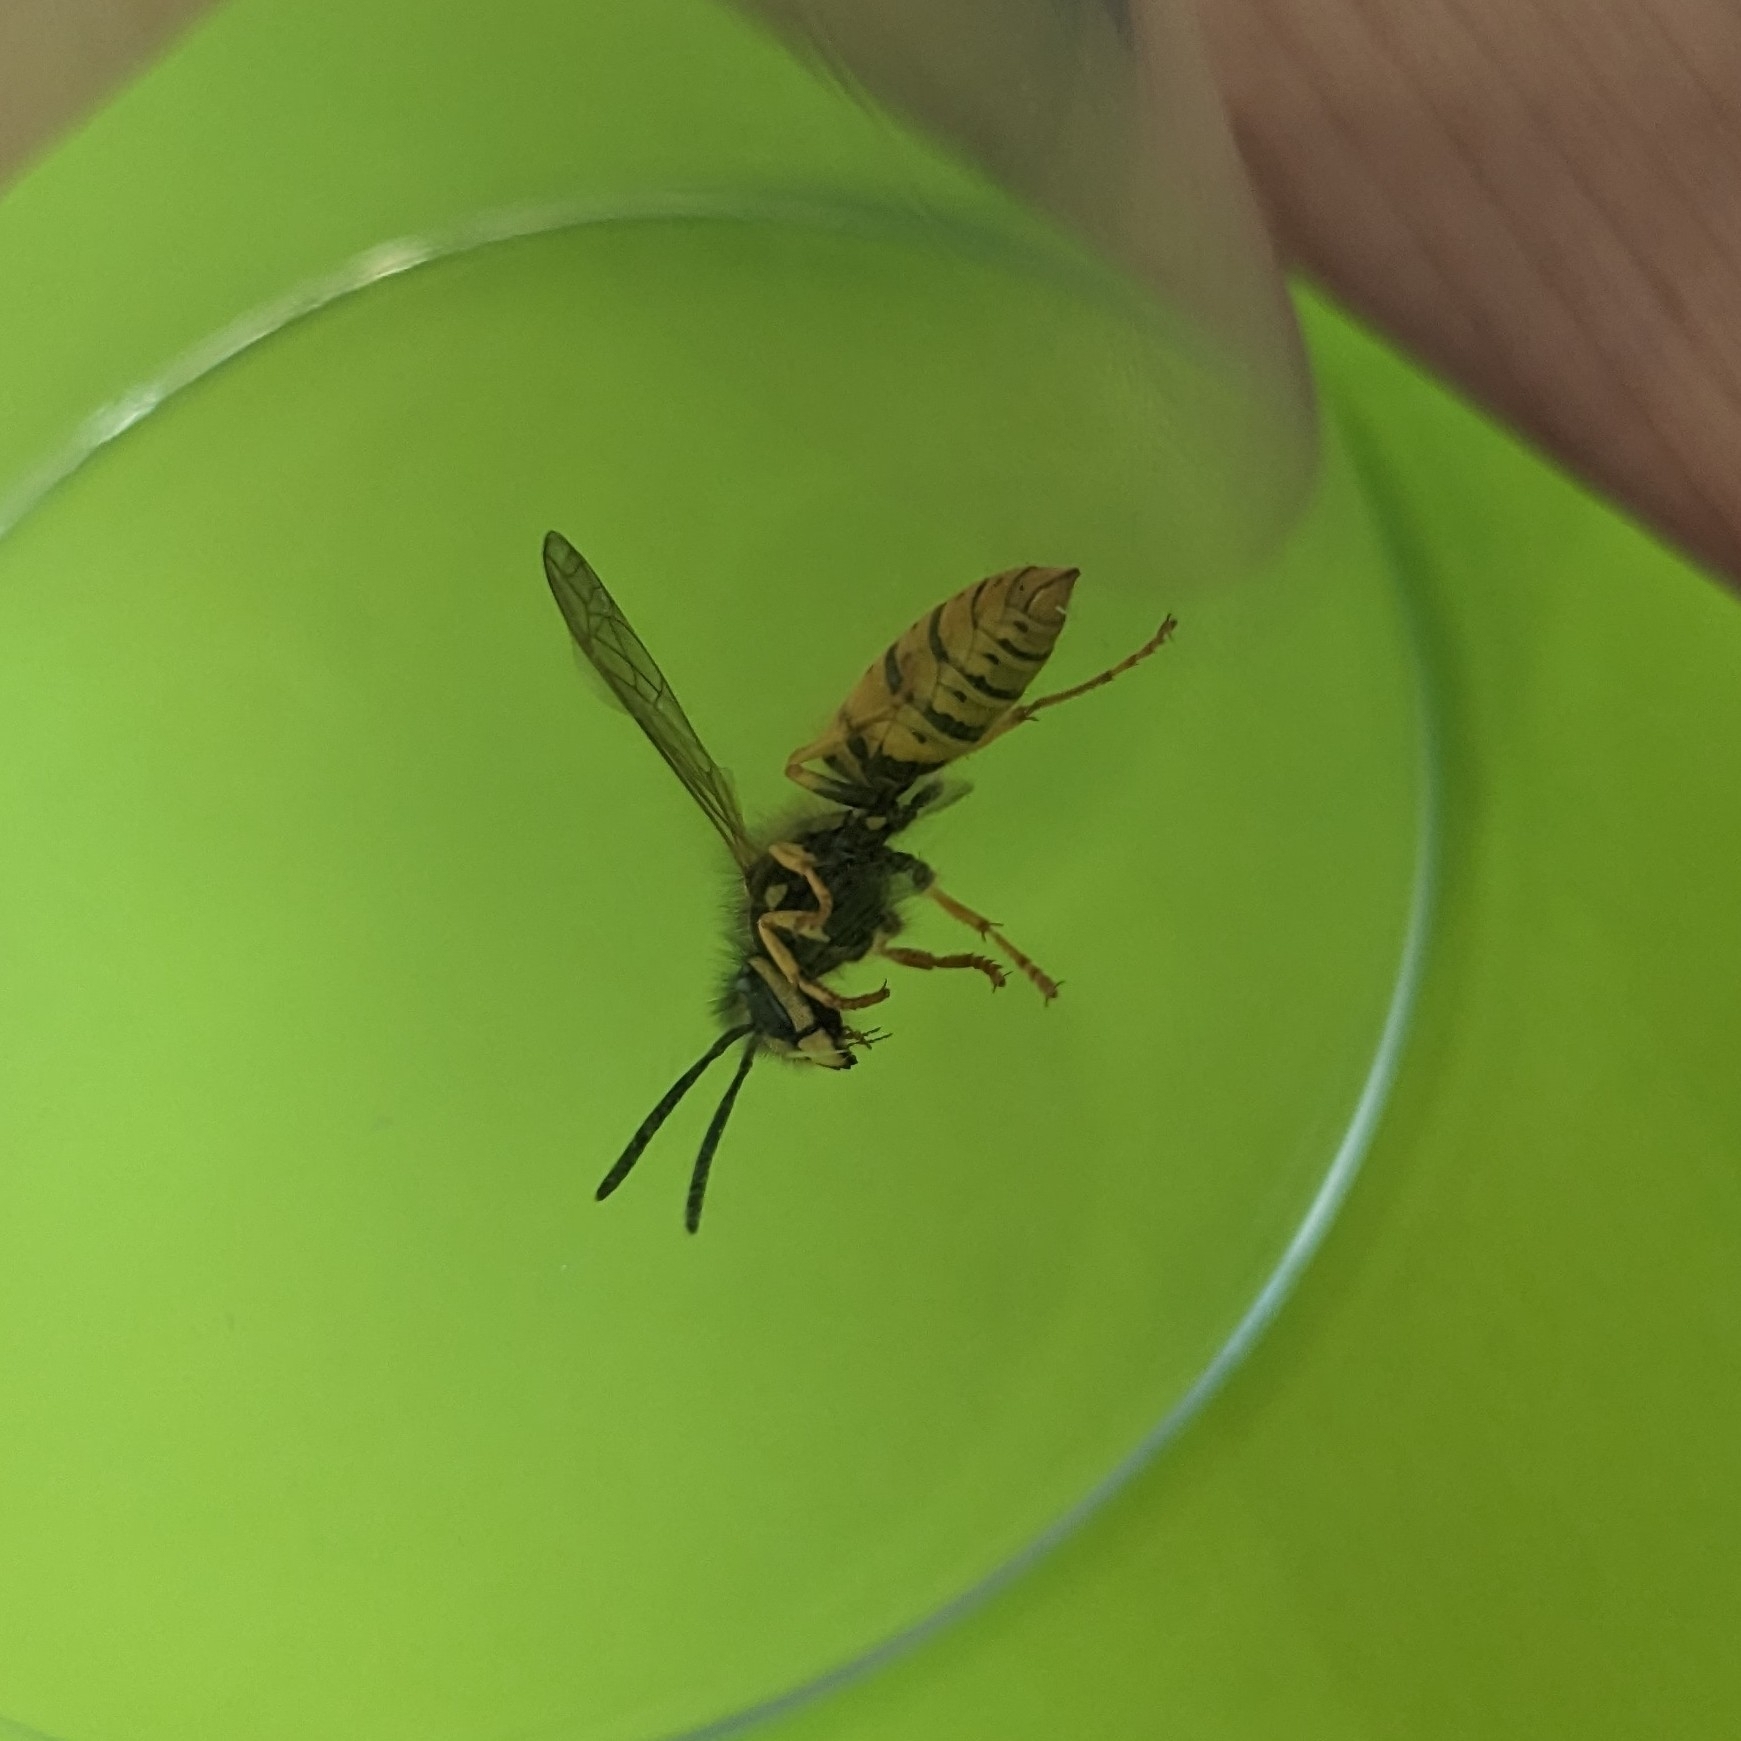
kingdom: Animalia
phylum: Arthropoda
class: Insecta
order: Hymenoptera
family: Vespidae
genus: Vespula
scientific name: Vespula germanica
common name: German wasp
